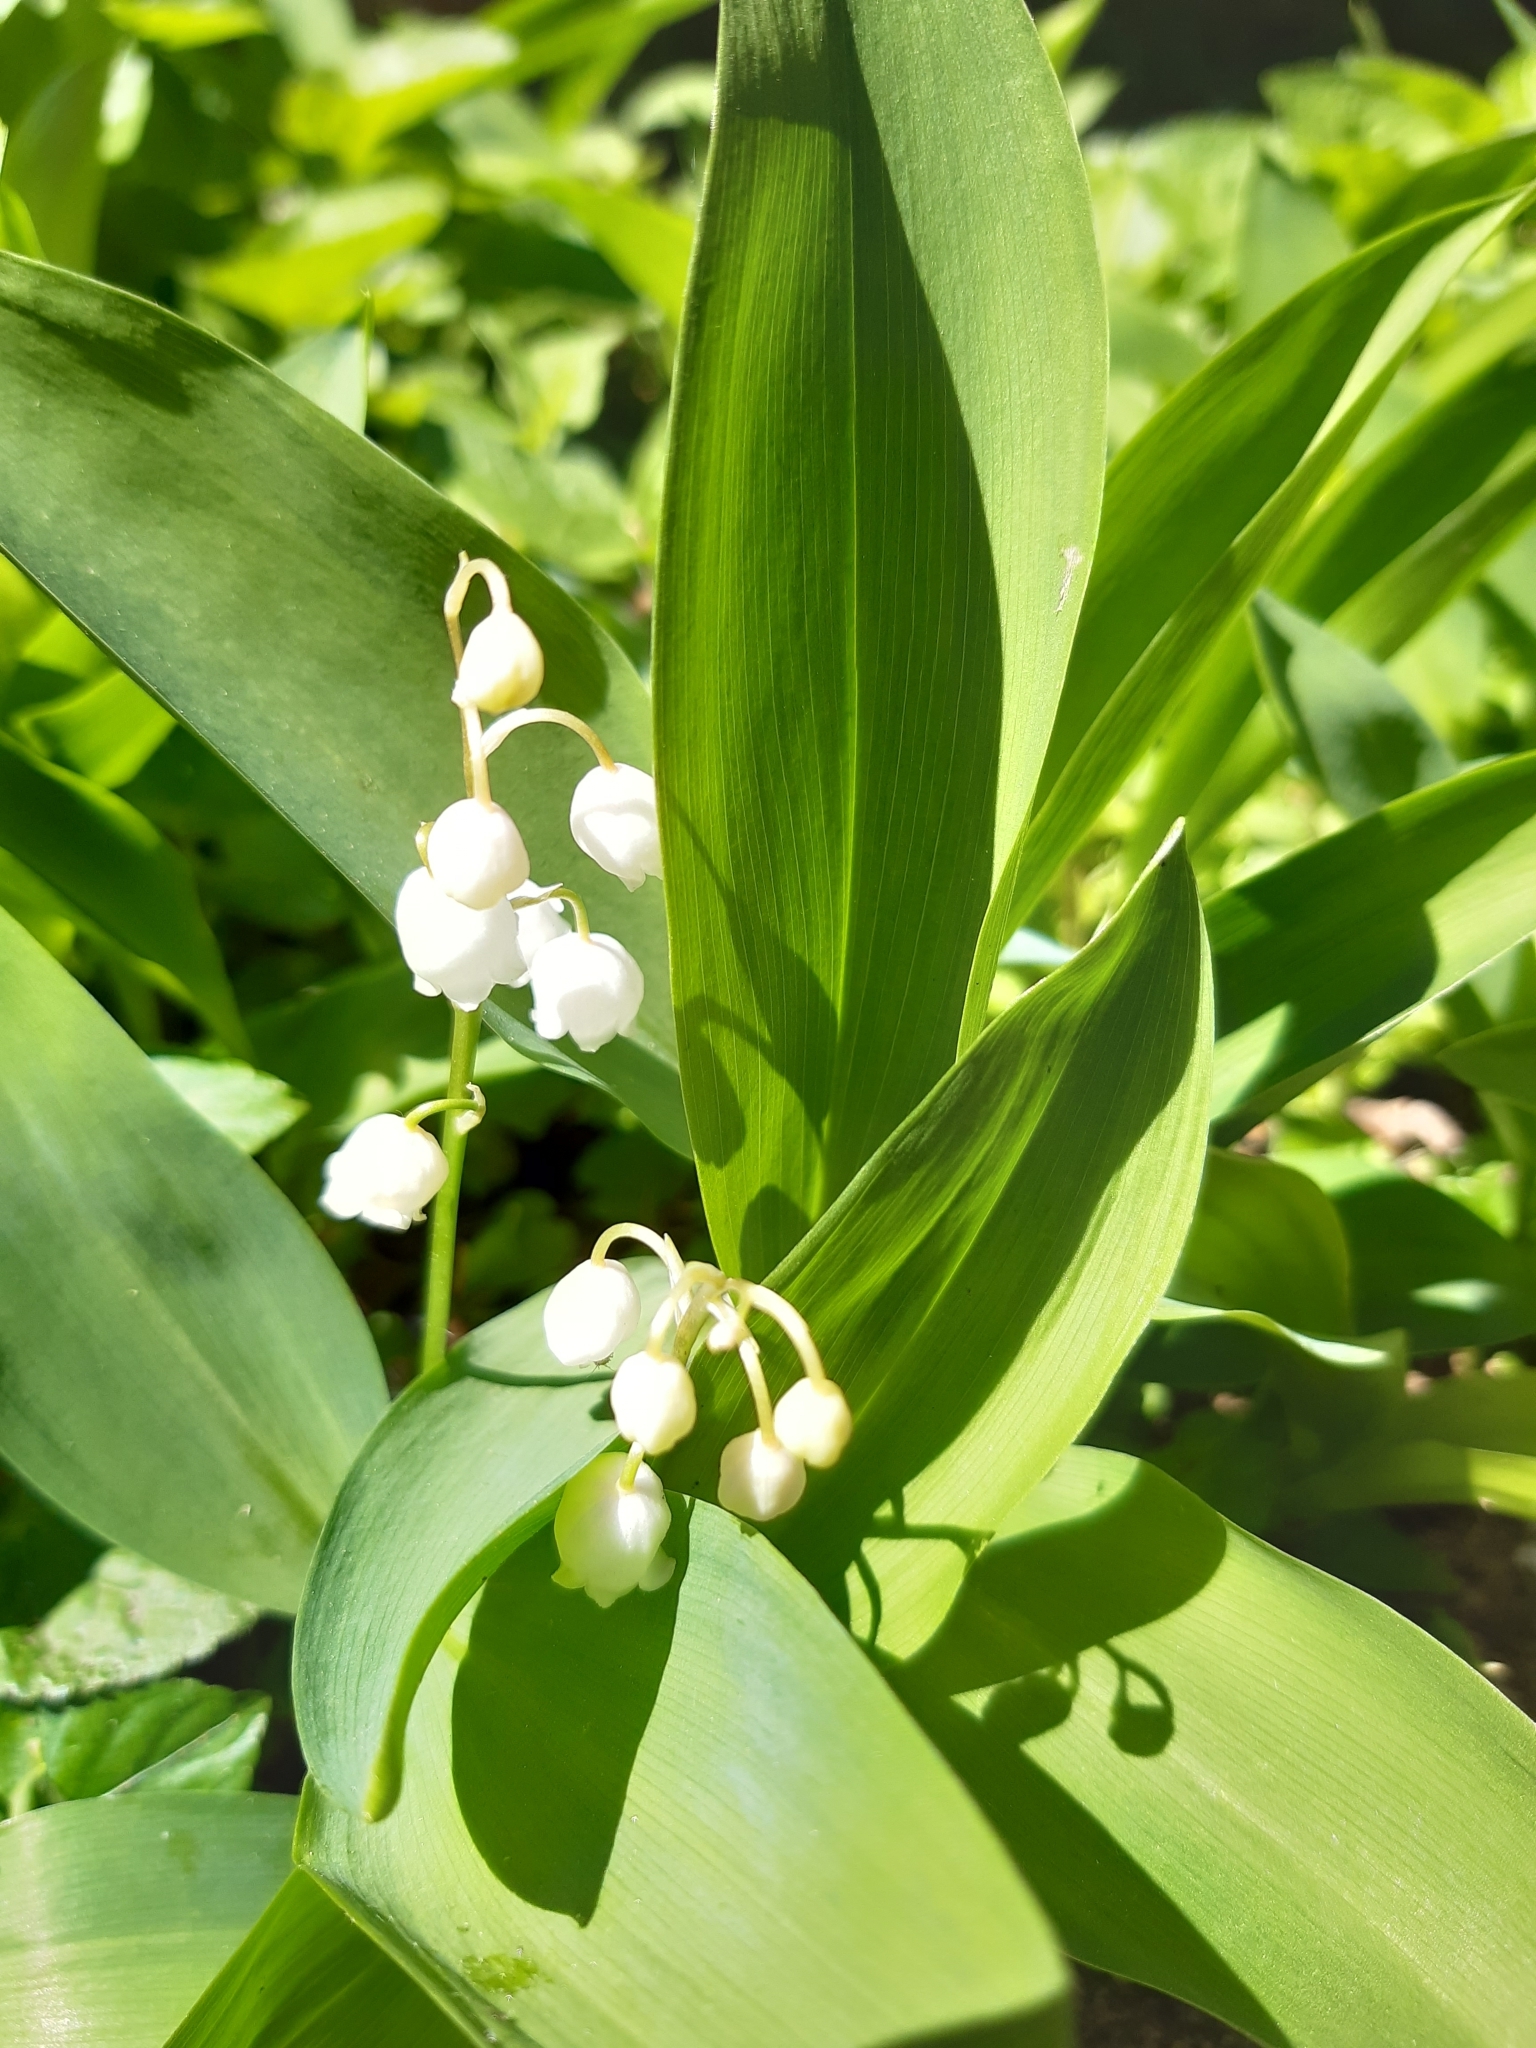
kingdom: Plantae
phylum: Tracheophyta
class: Liliopsida
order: Asparagales
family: Asparagaceae
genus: Convallaria
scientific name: Convallaria majalis
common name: Lily-of-the-valley
